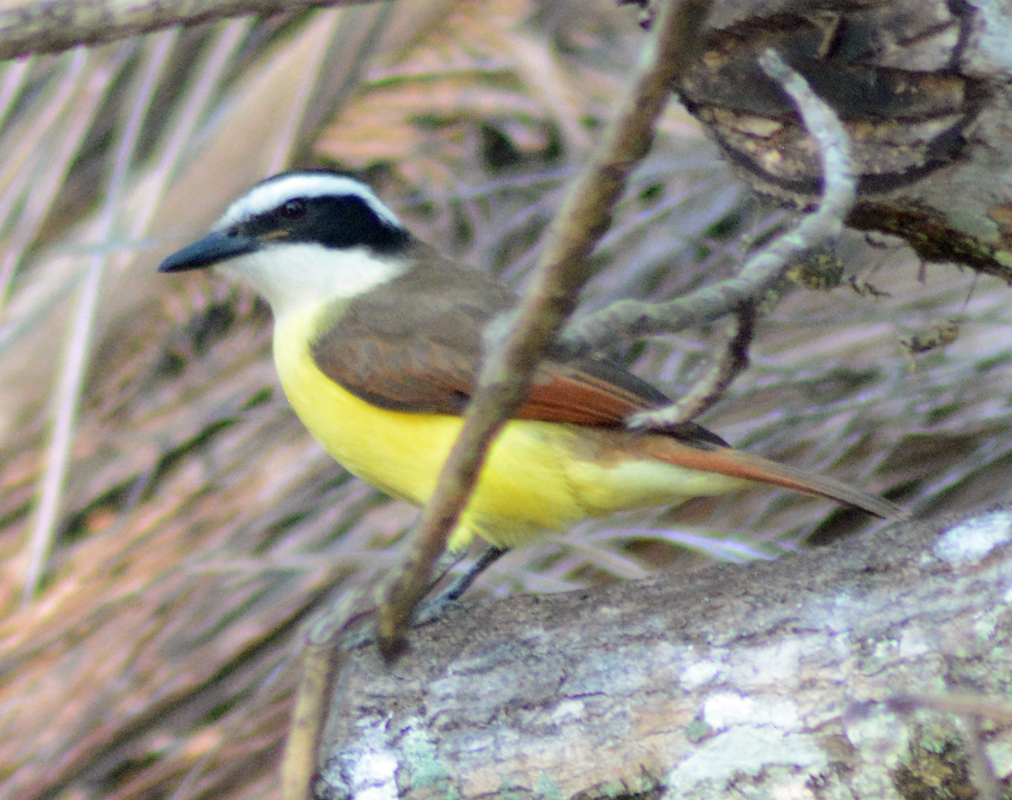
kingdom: Animalia
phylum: Chordata
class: Aves
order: Passeriformes
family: Tyrannidae
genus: Pitangus
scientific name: Pitangus sulphuratus
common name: Great kiskadee
